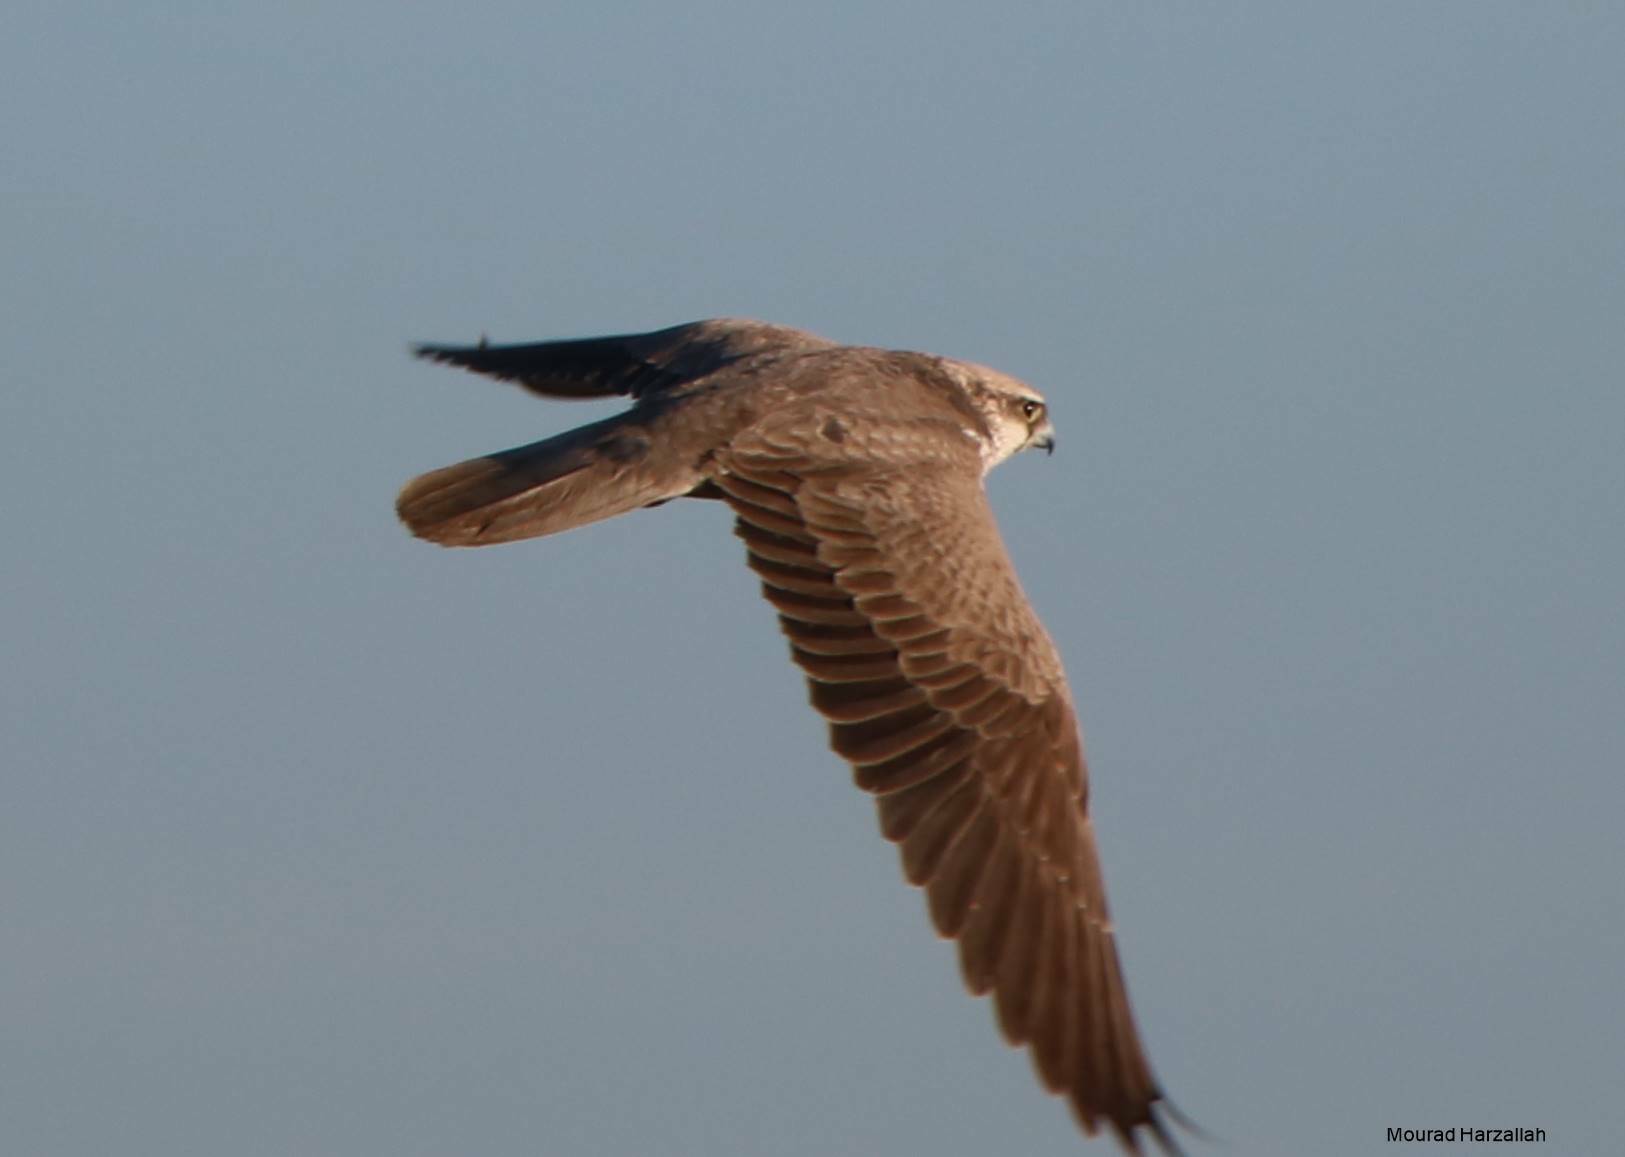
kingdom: Animalia
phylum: Chordata
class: Aves
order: Falconiformes
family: Falconidae
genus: Falco
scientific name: Falco biarmicus
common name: Lanner falcon
